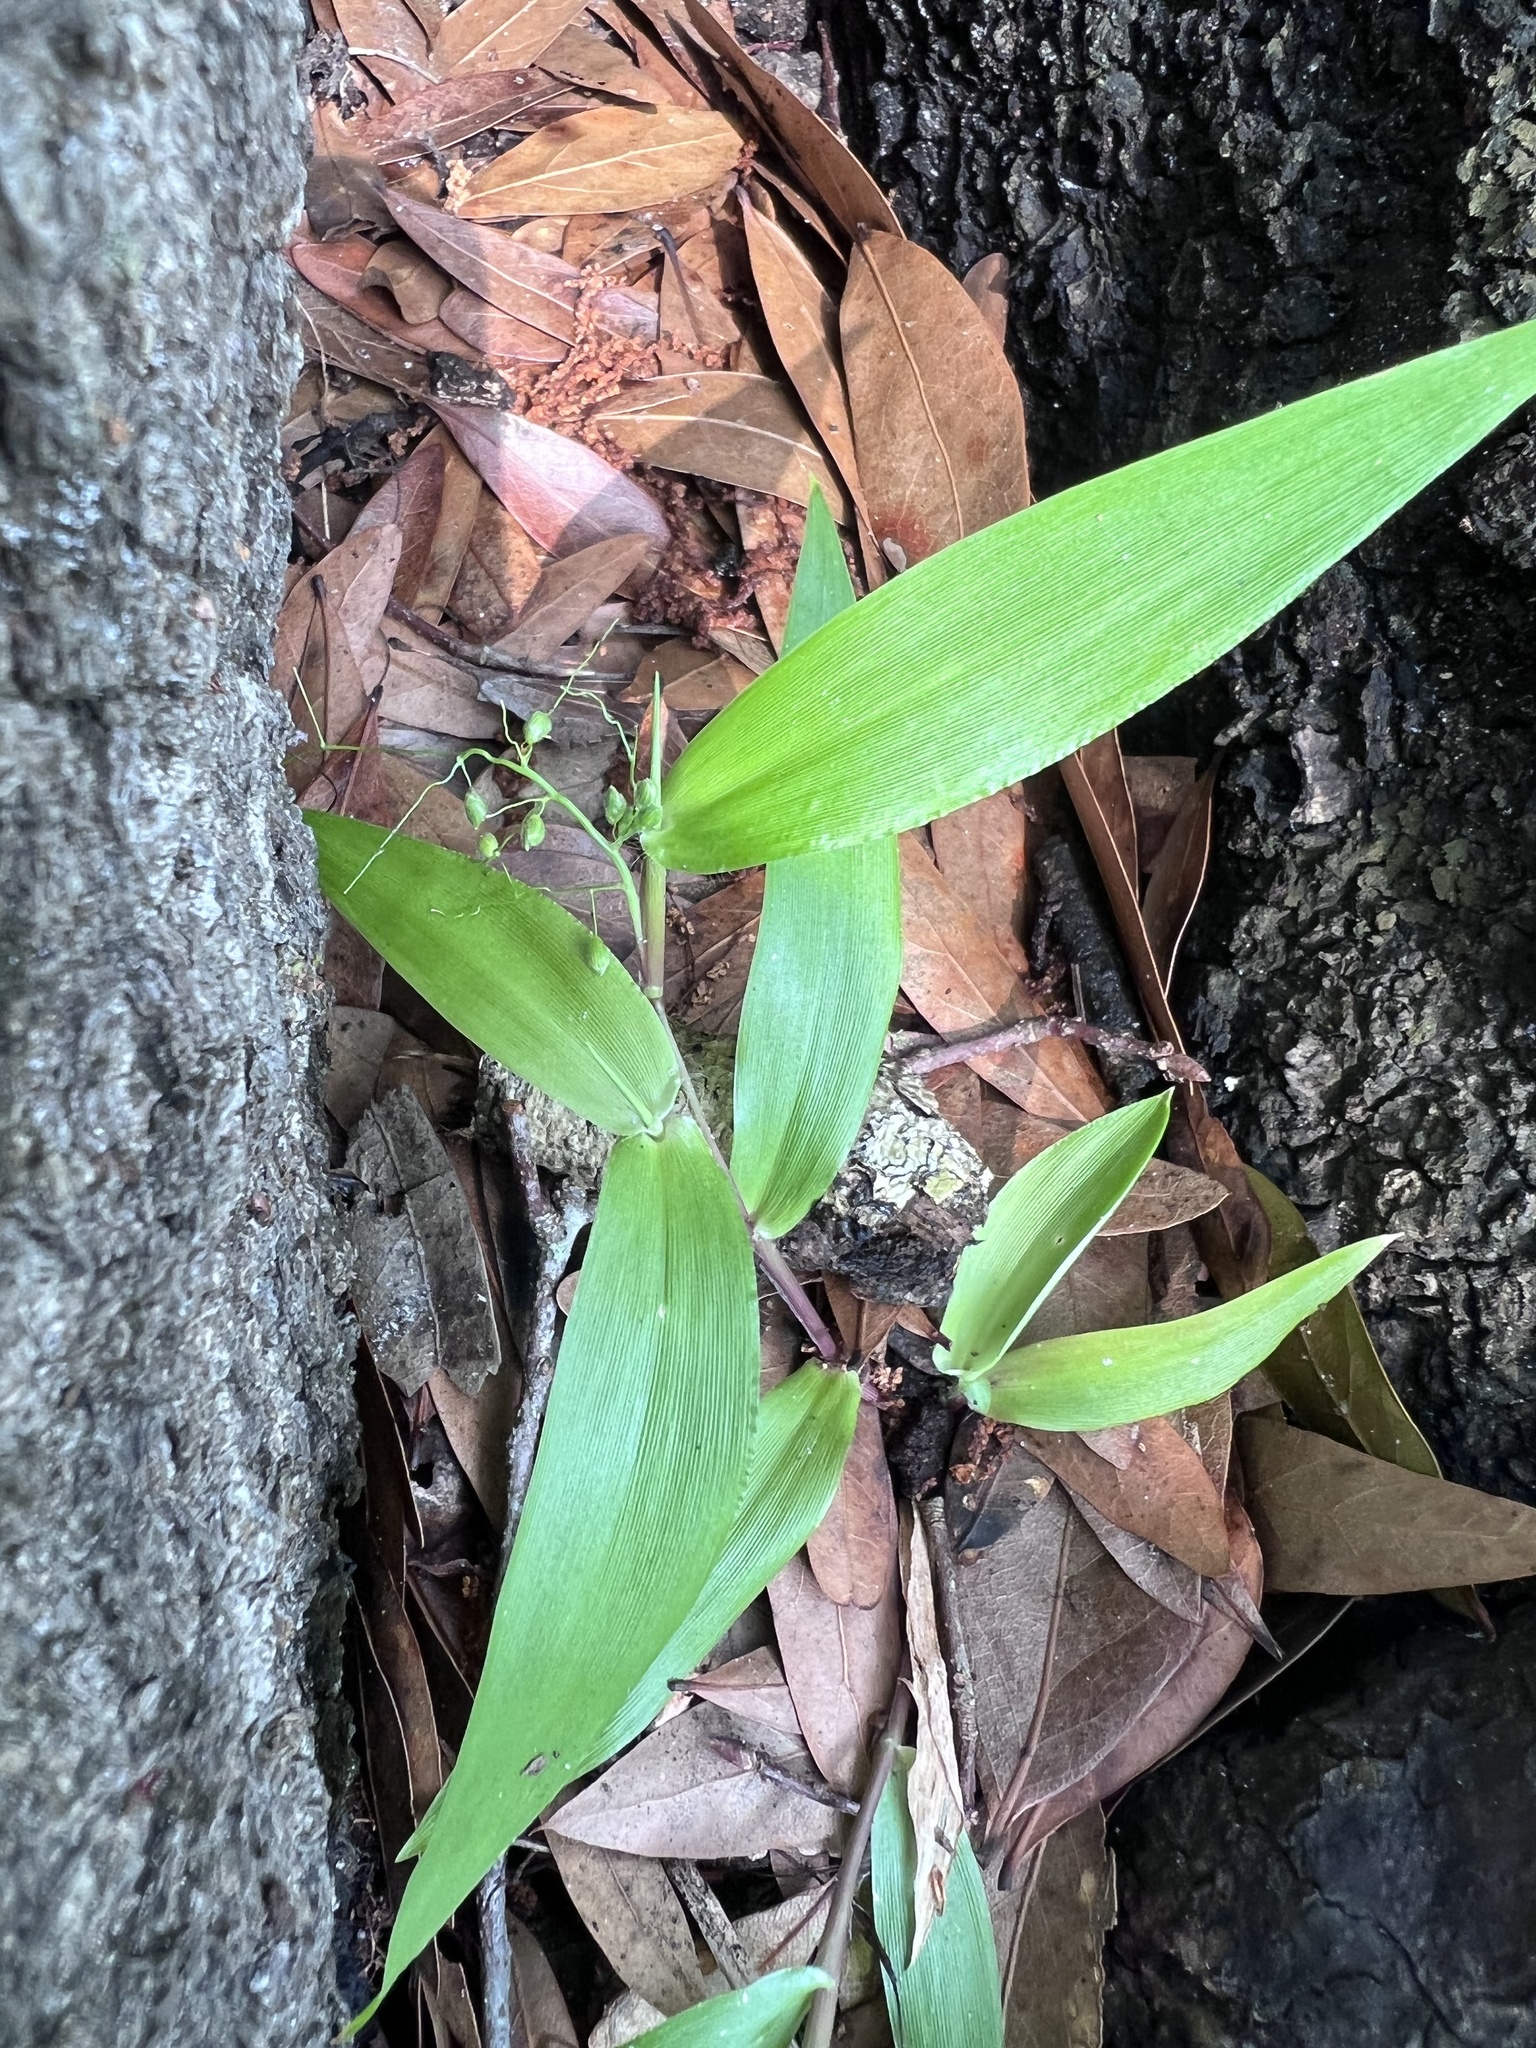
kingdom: Plantae
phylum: Tracheophyta
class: Liliopsida
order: Poales
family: Poaceae
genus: Dichanthelium
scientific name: Dichanthelium commutatum
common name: Variable witchgrass
